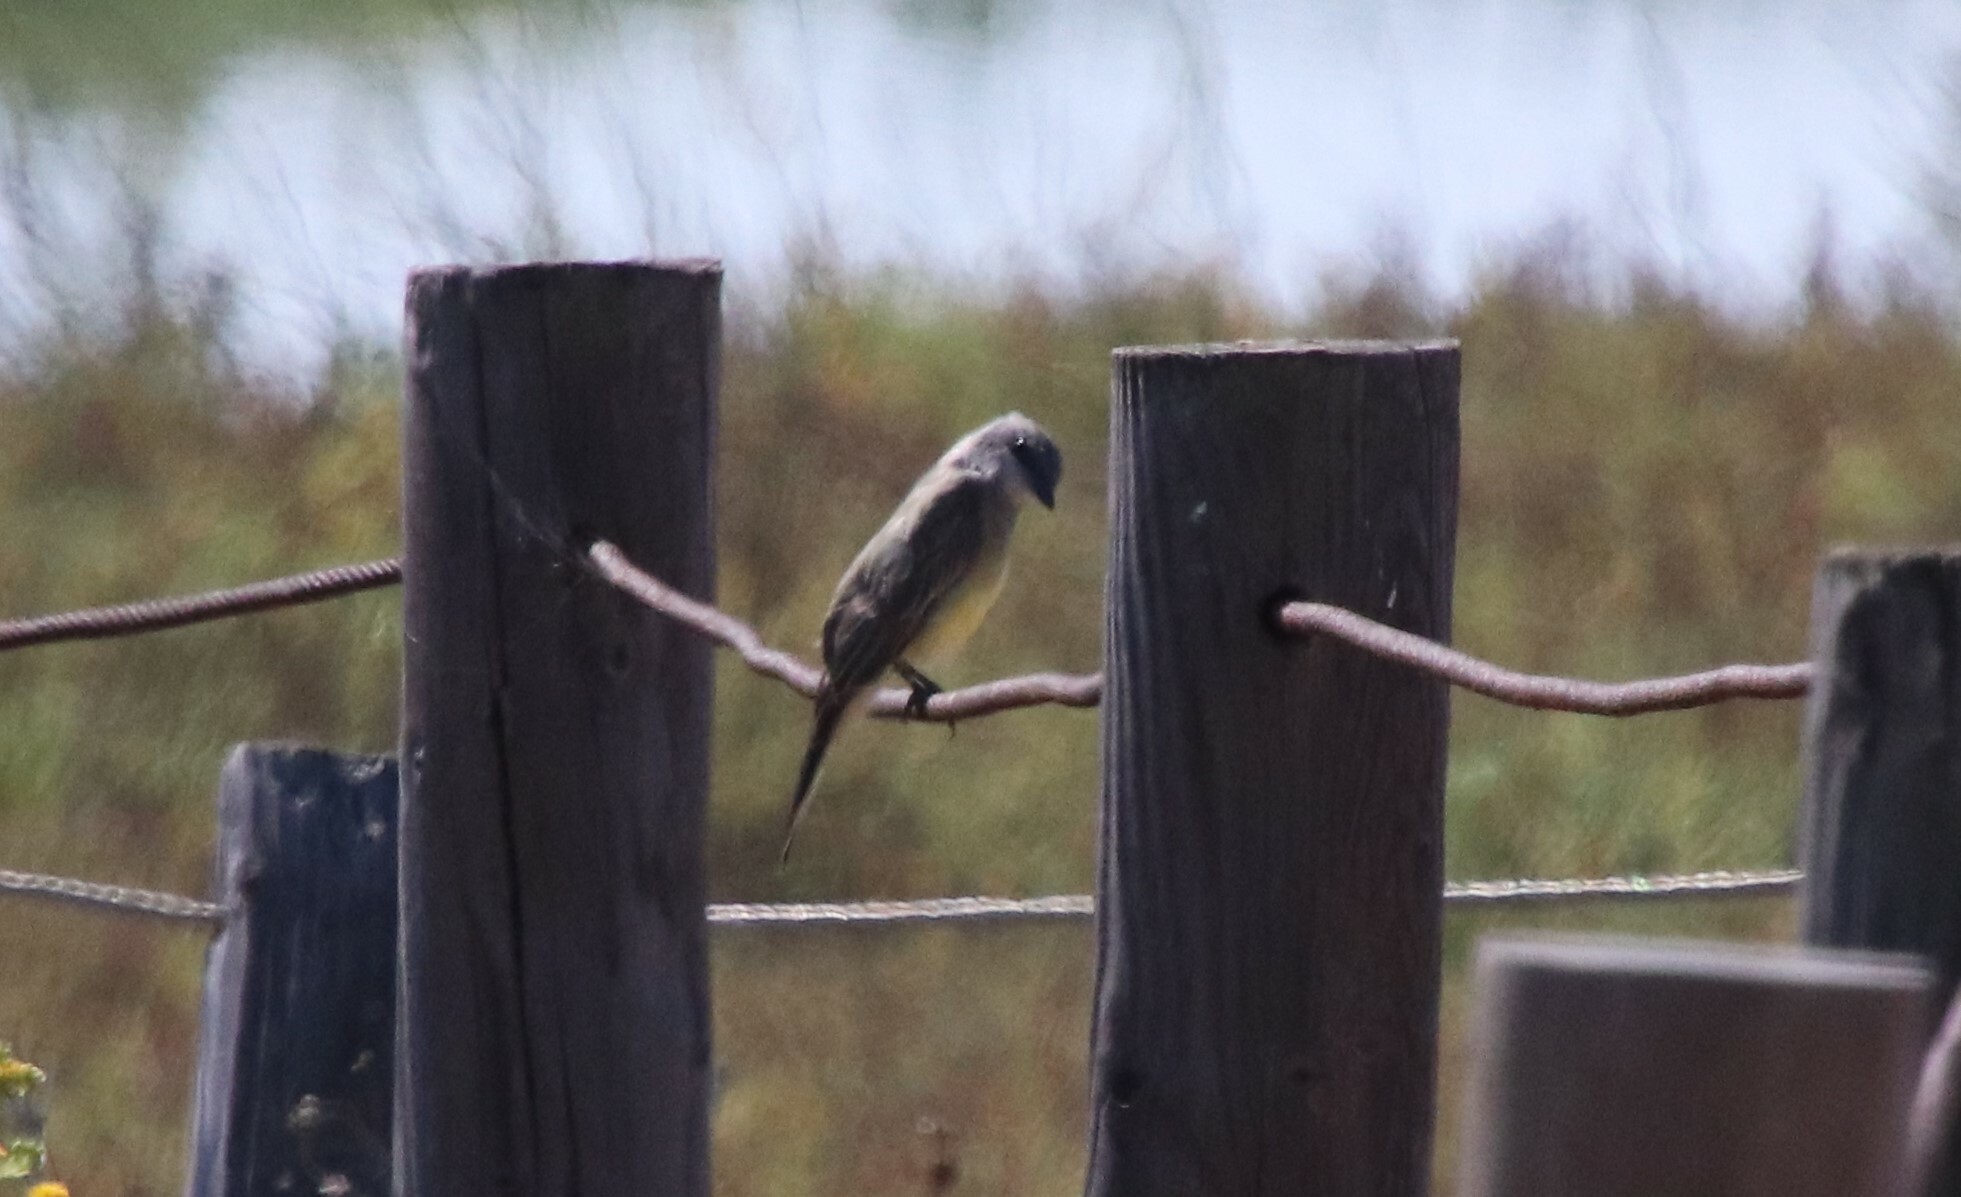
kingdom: Animalia
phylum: Chordata
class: Aves
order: Passeriformes
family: Tyrannidae
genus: Tyrannus
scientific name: Tyrannus vociferans
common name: Cassin's kingbird
